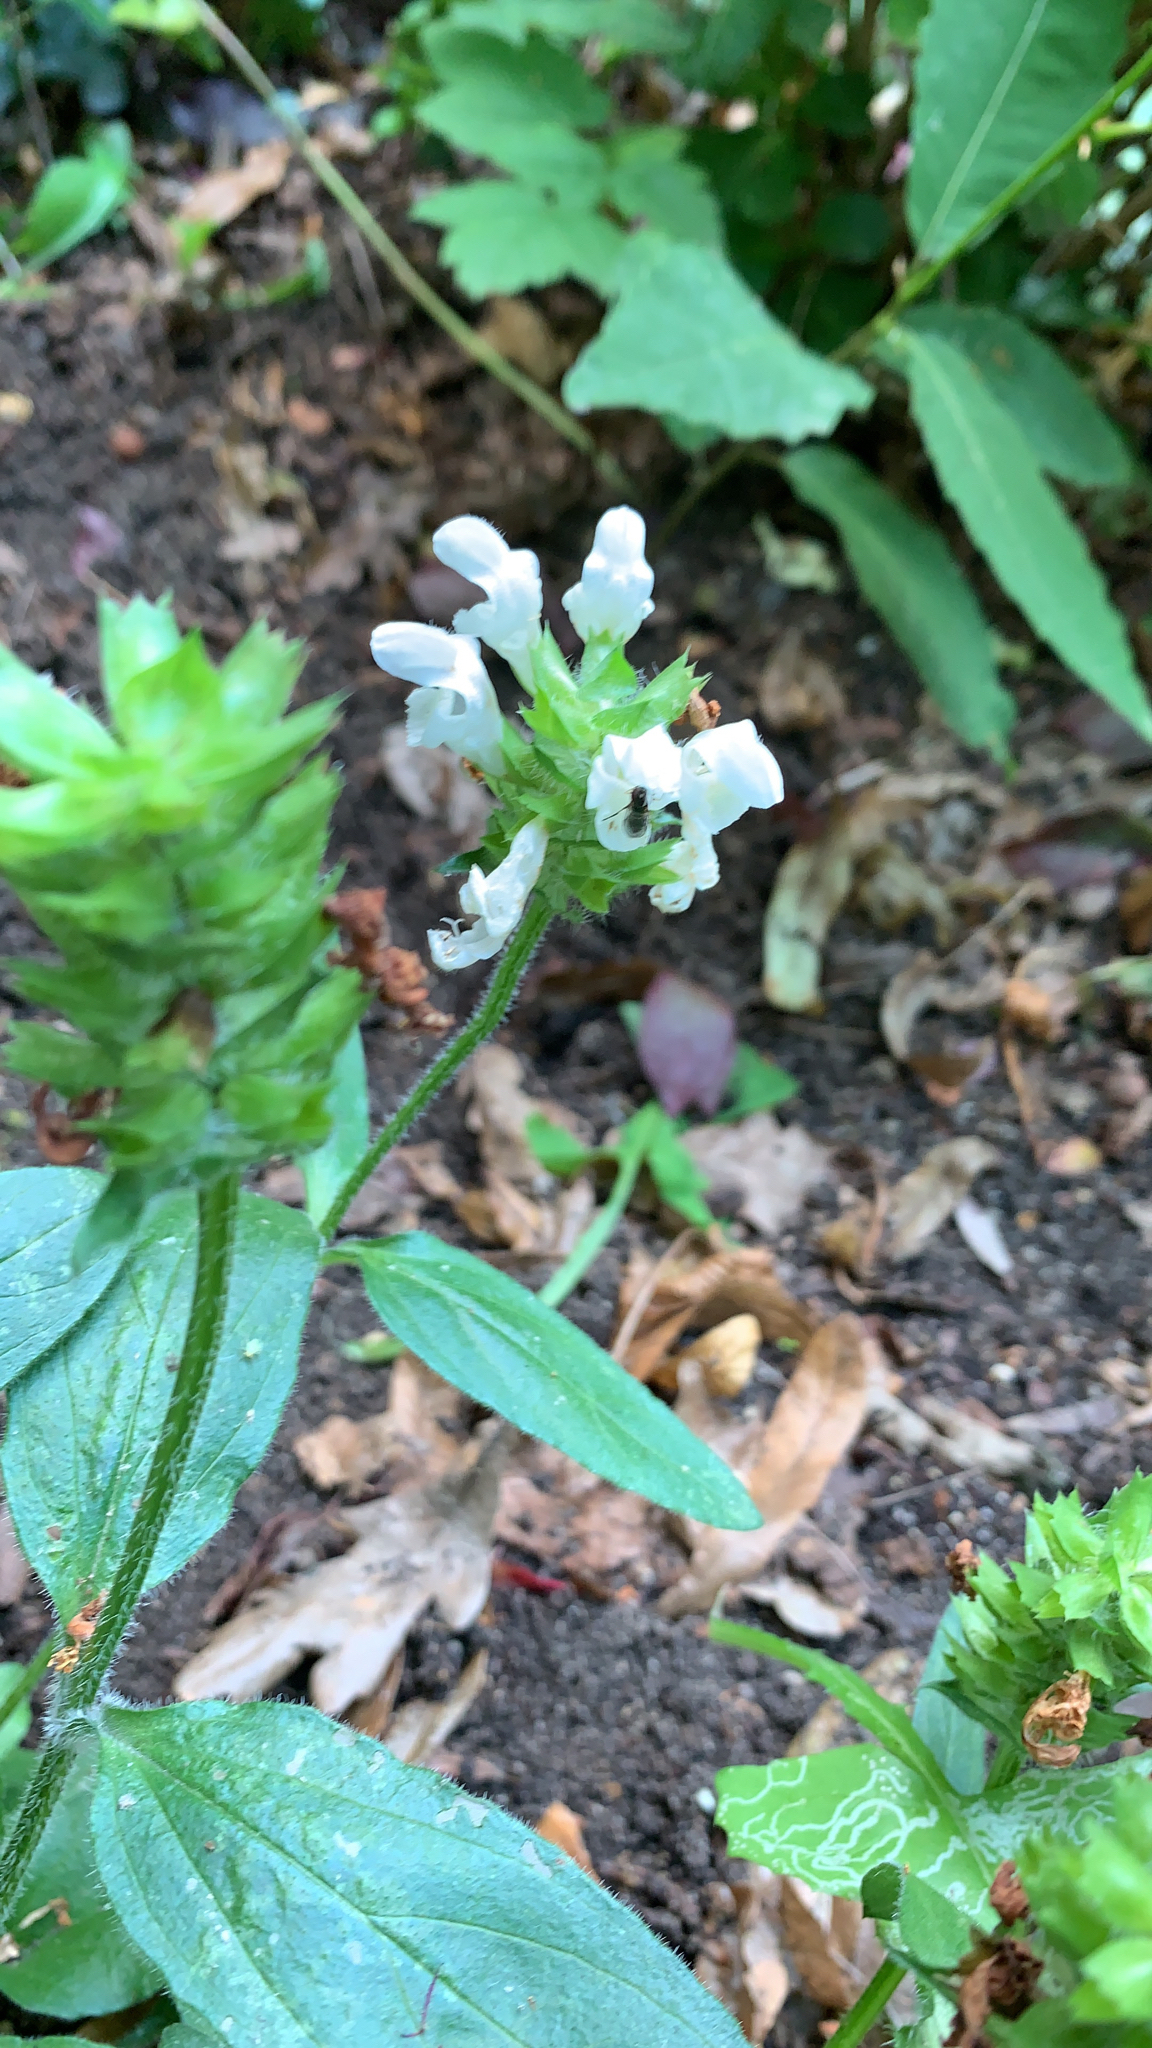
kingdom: Plantae
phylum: Tracheophyta
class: Magnoliopsida
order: Lamiales
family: Lamiaceae
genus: Prunella
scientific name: Prunella vulgaris
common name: Heal-all
